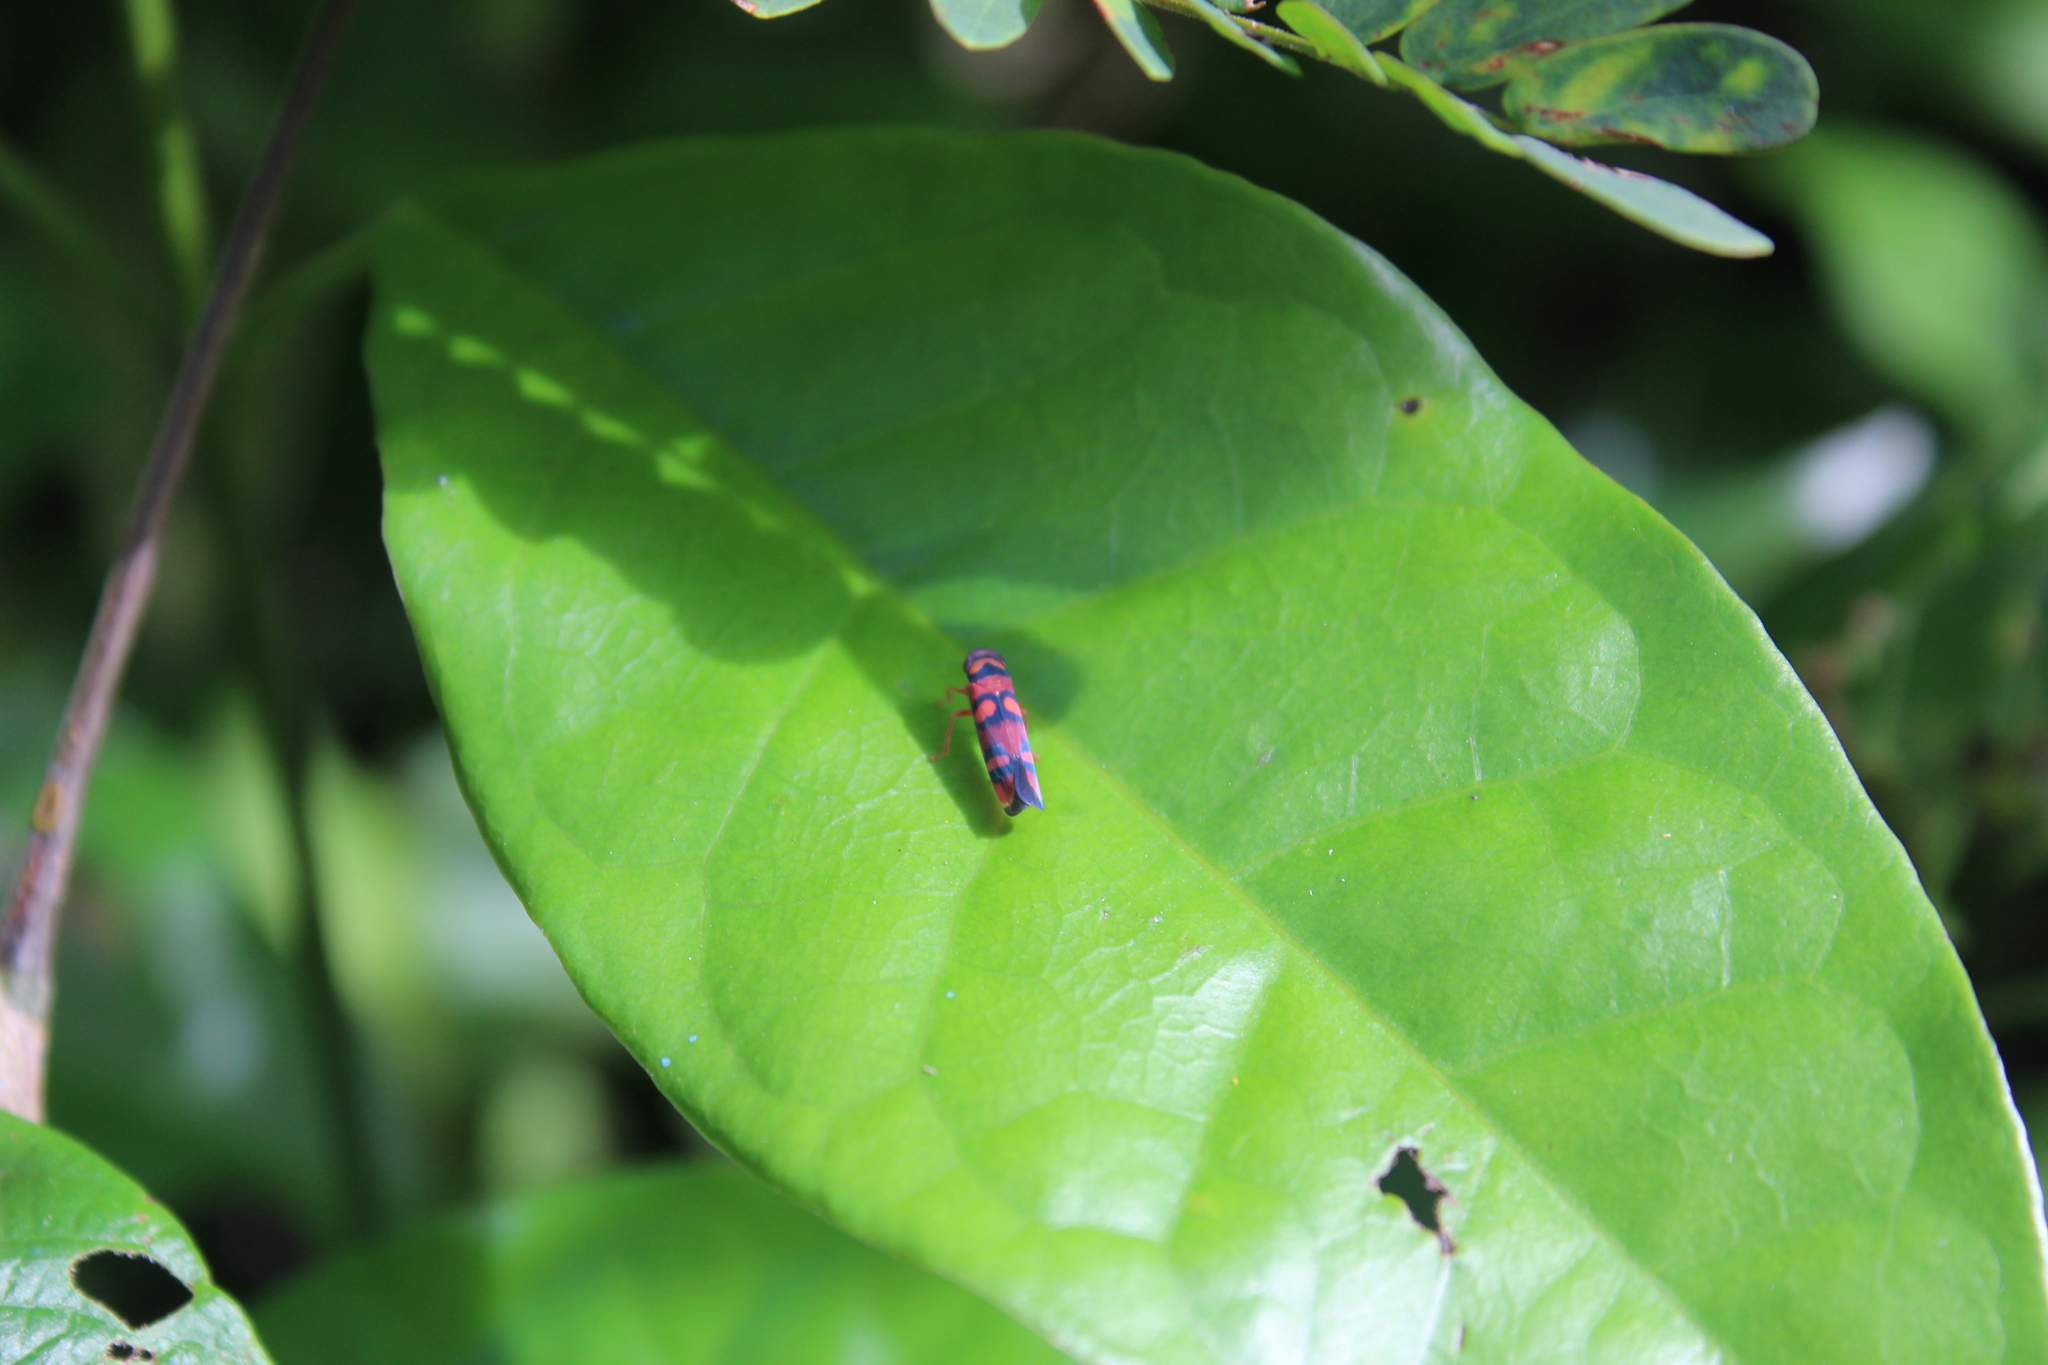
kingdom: Animalia
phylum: Arthropoda
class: Insecta
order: Hemiptera
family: Cicadellidae
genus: Pawiloma
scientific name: Pawiloma jucunda
